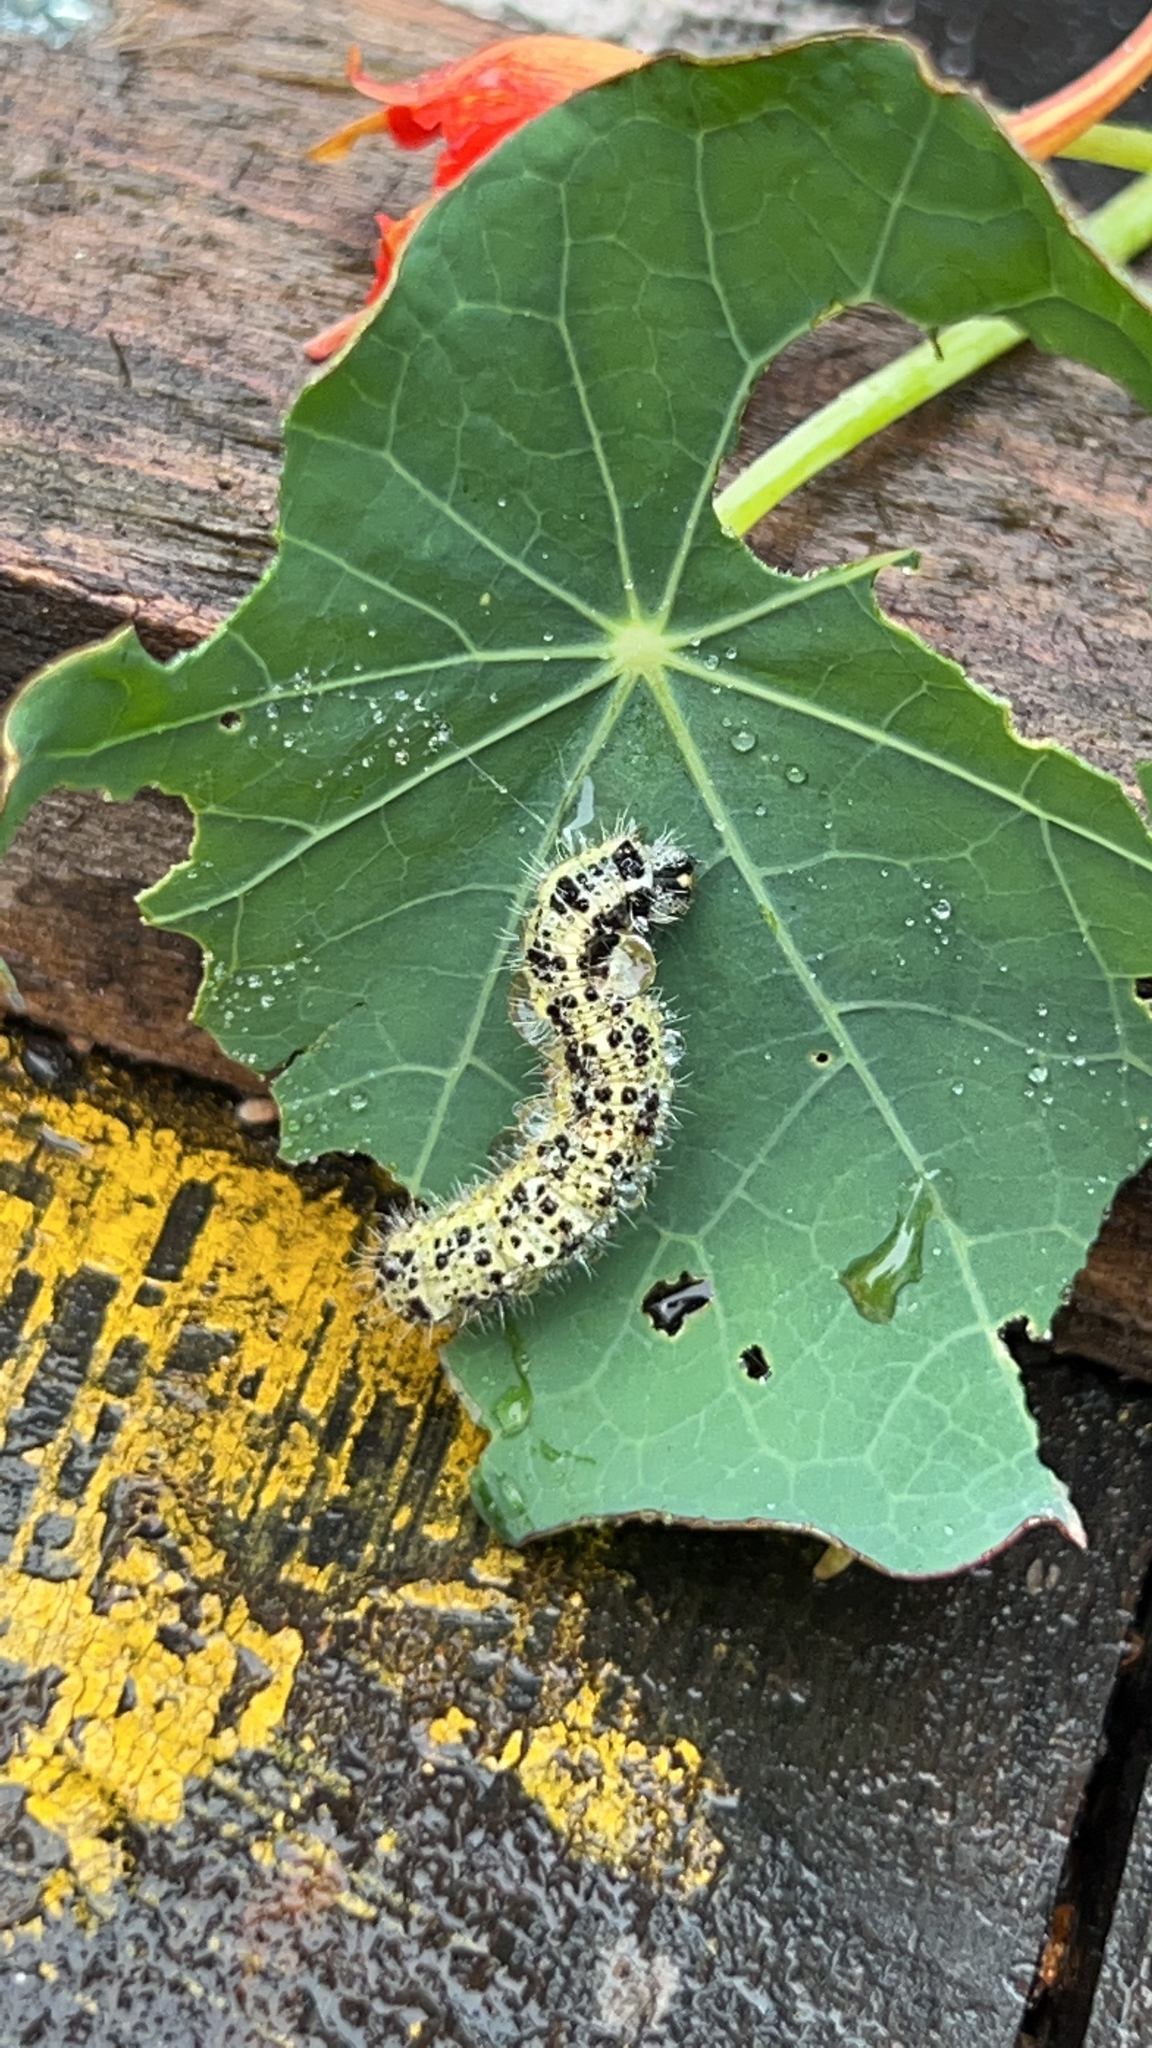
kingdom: Animalia
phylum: Arthropoda
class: Insecta
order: Lepidoptera
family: Pieridae
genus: Pieris
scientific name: Pieris brassicae
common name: Large white
